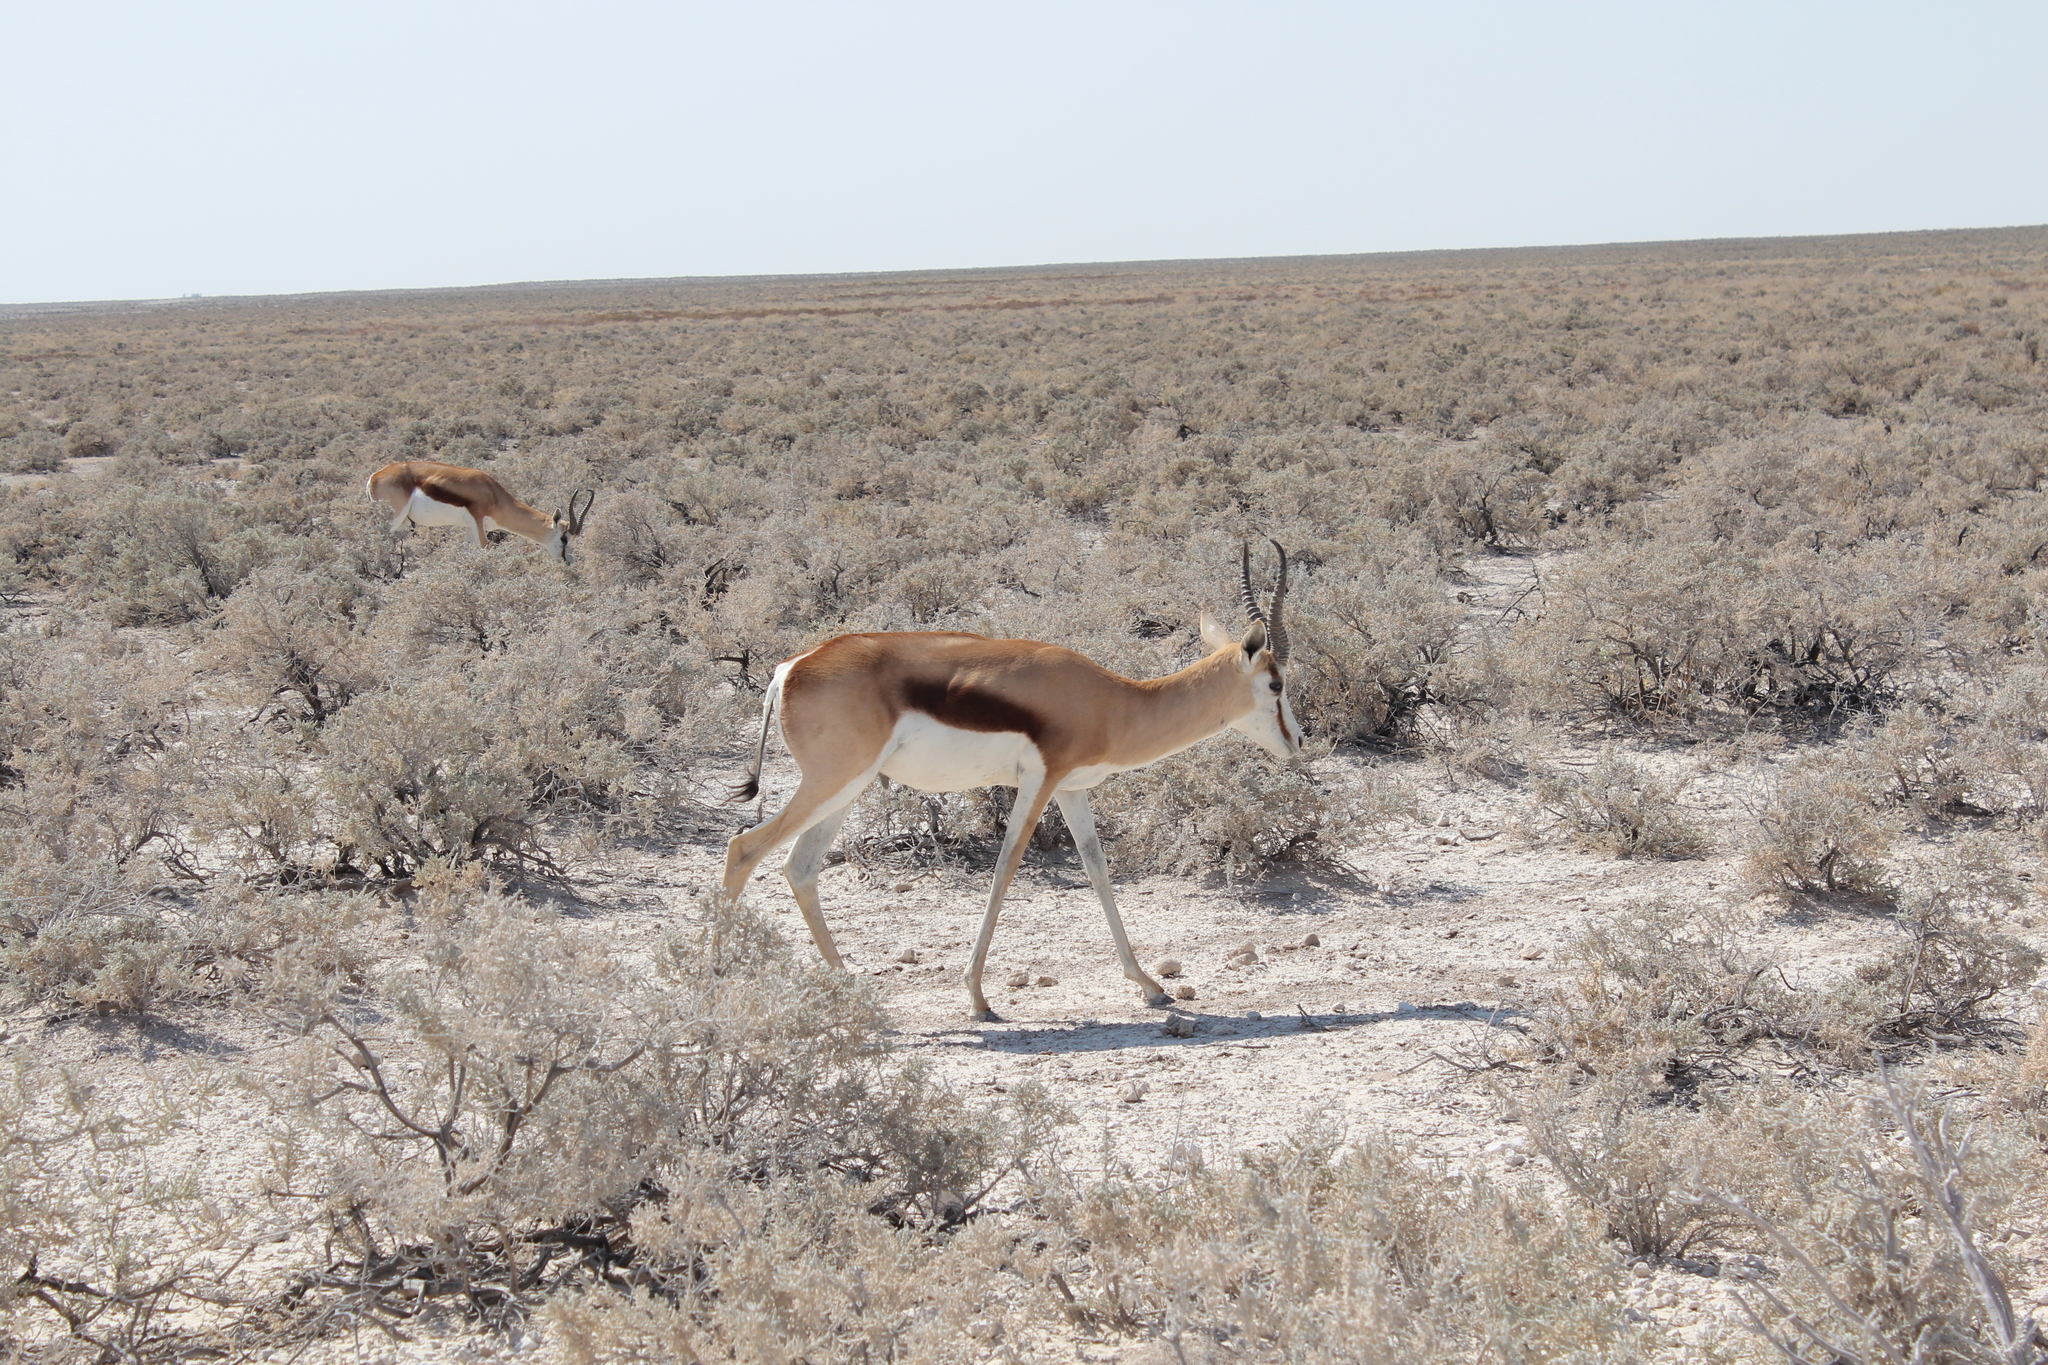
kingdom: Animalia
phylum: Chordata
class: Mammalia
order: Artiodactyla
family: Bovidae
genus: Antidorcas
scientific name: Antidorcas marsupialis
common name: Springbok
